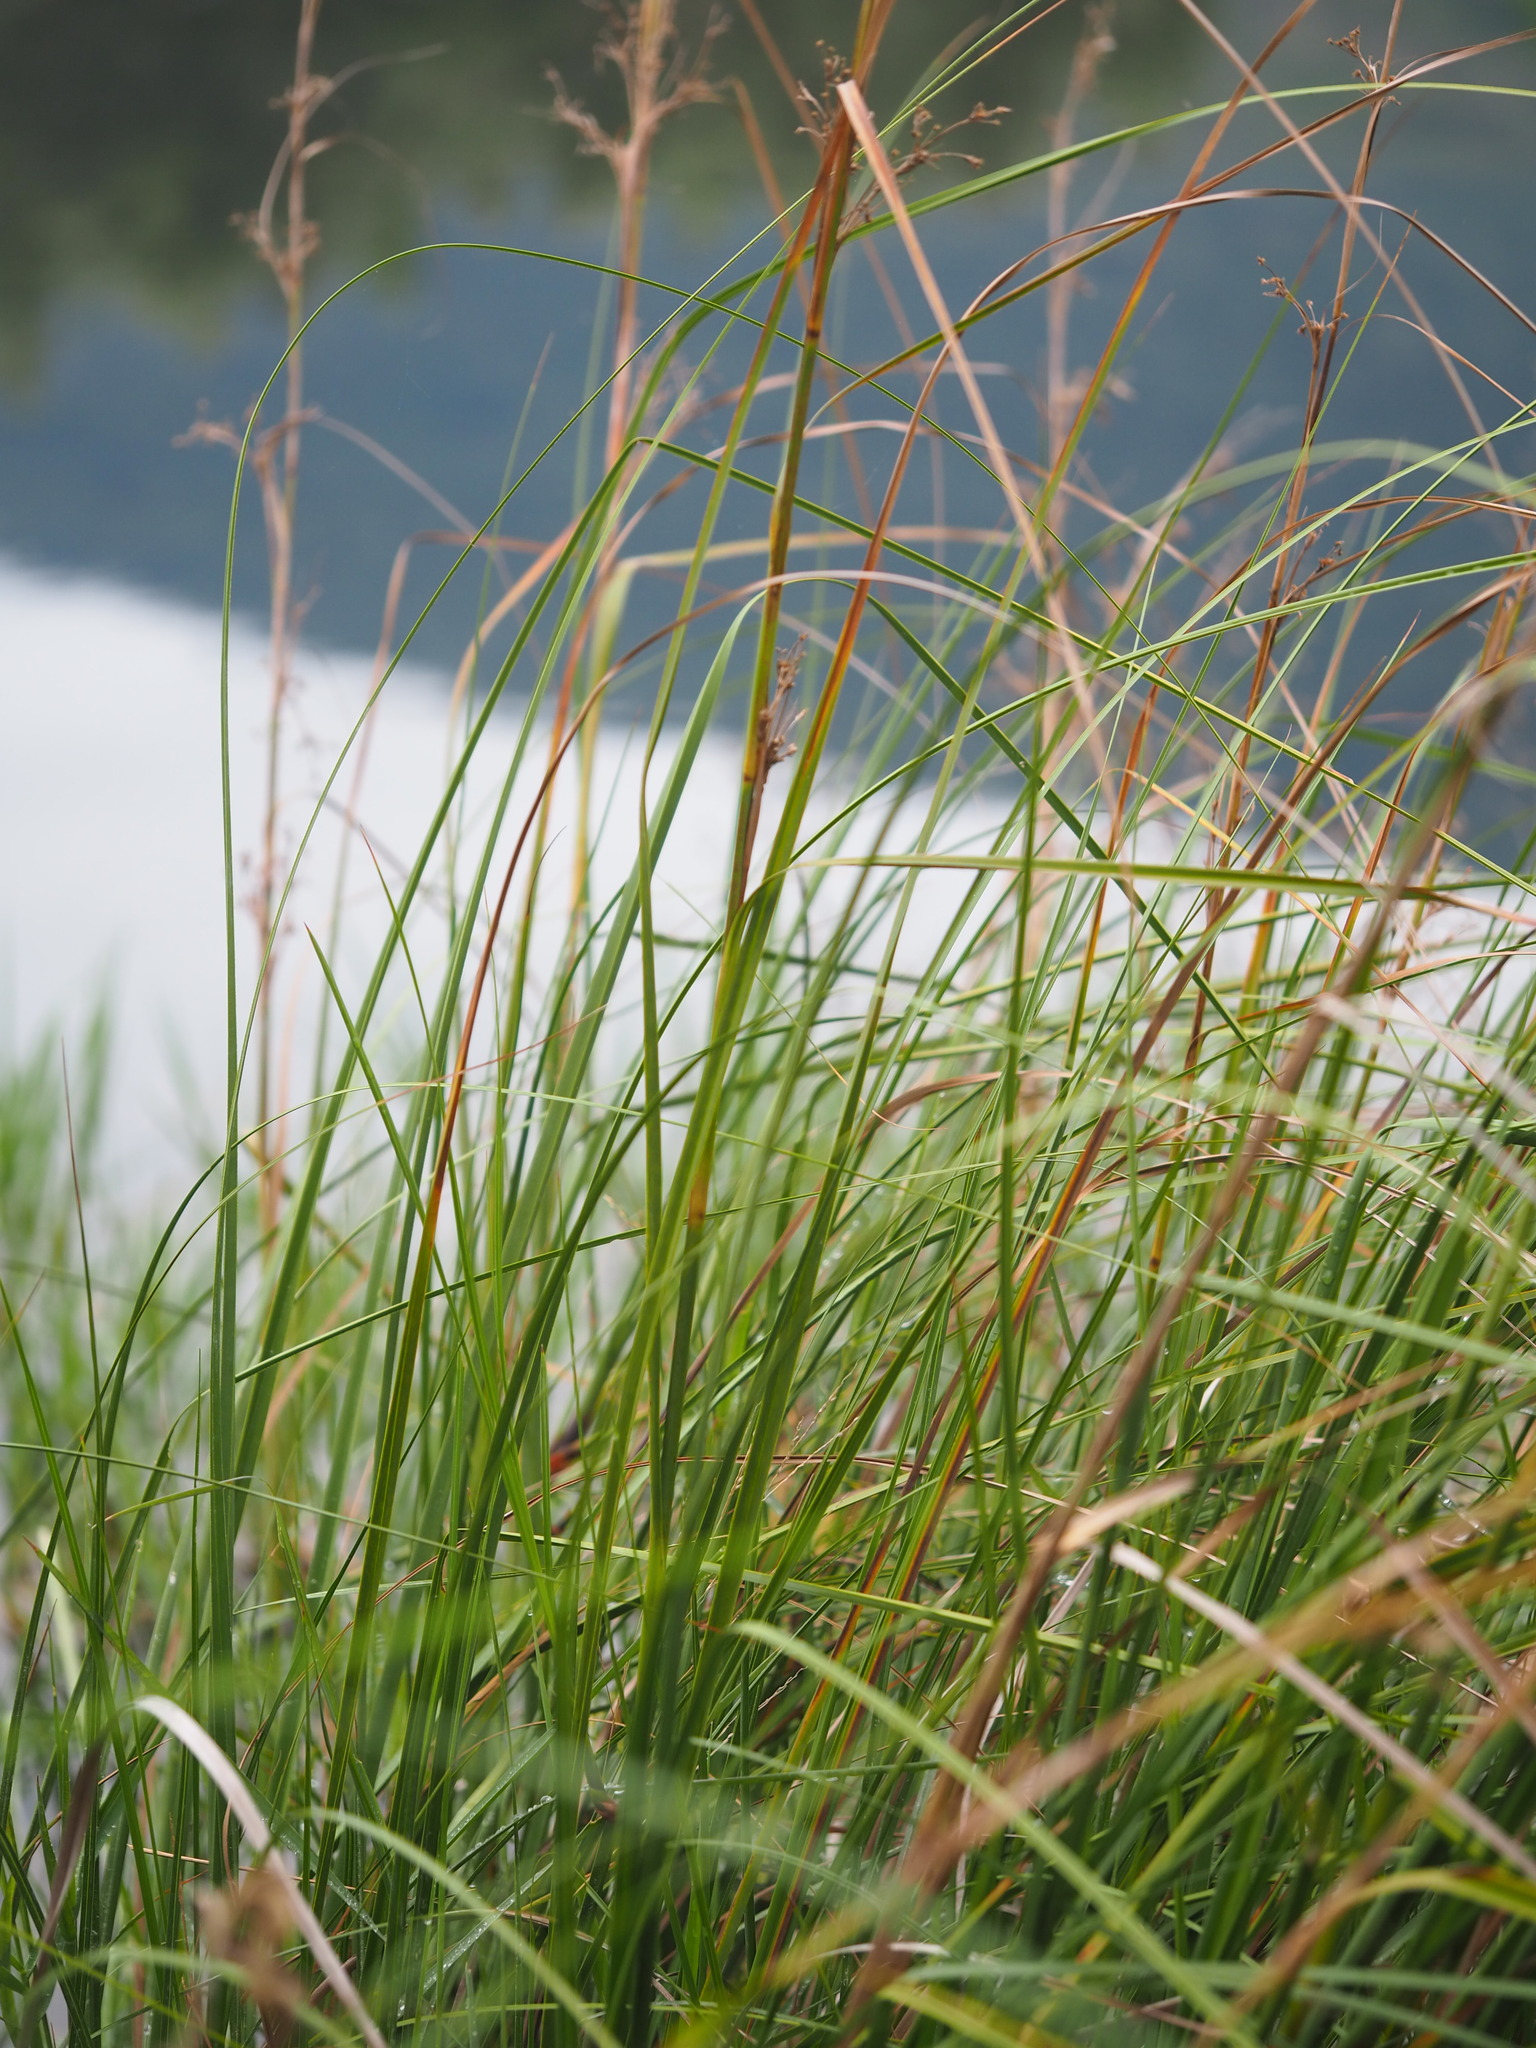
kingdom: Plantae
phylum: Tracheophyta
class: Liliopsida
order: Poales
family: Cyperaceae
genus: Cladium
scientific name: Cladium mariscus
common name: Great fen-sedge
